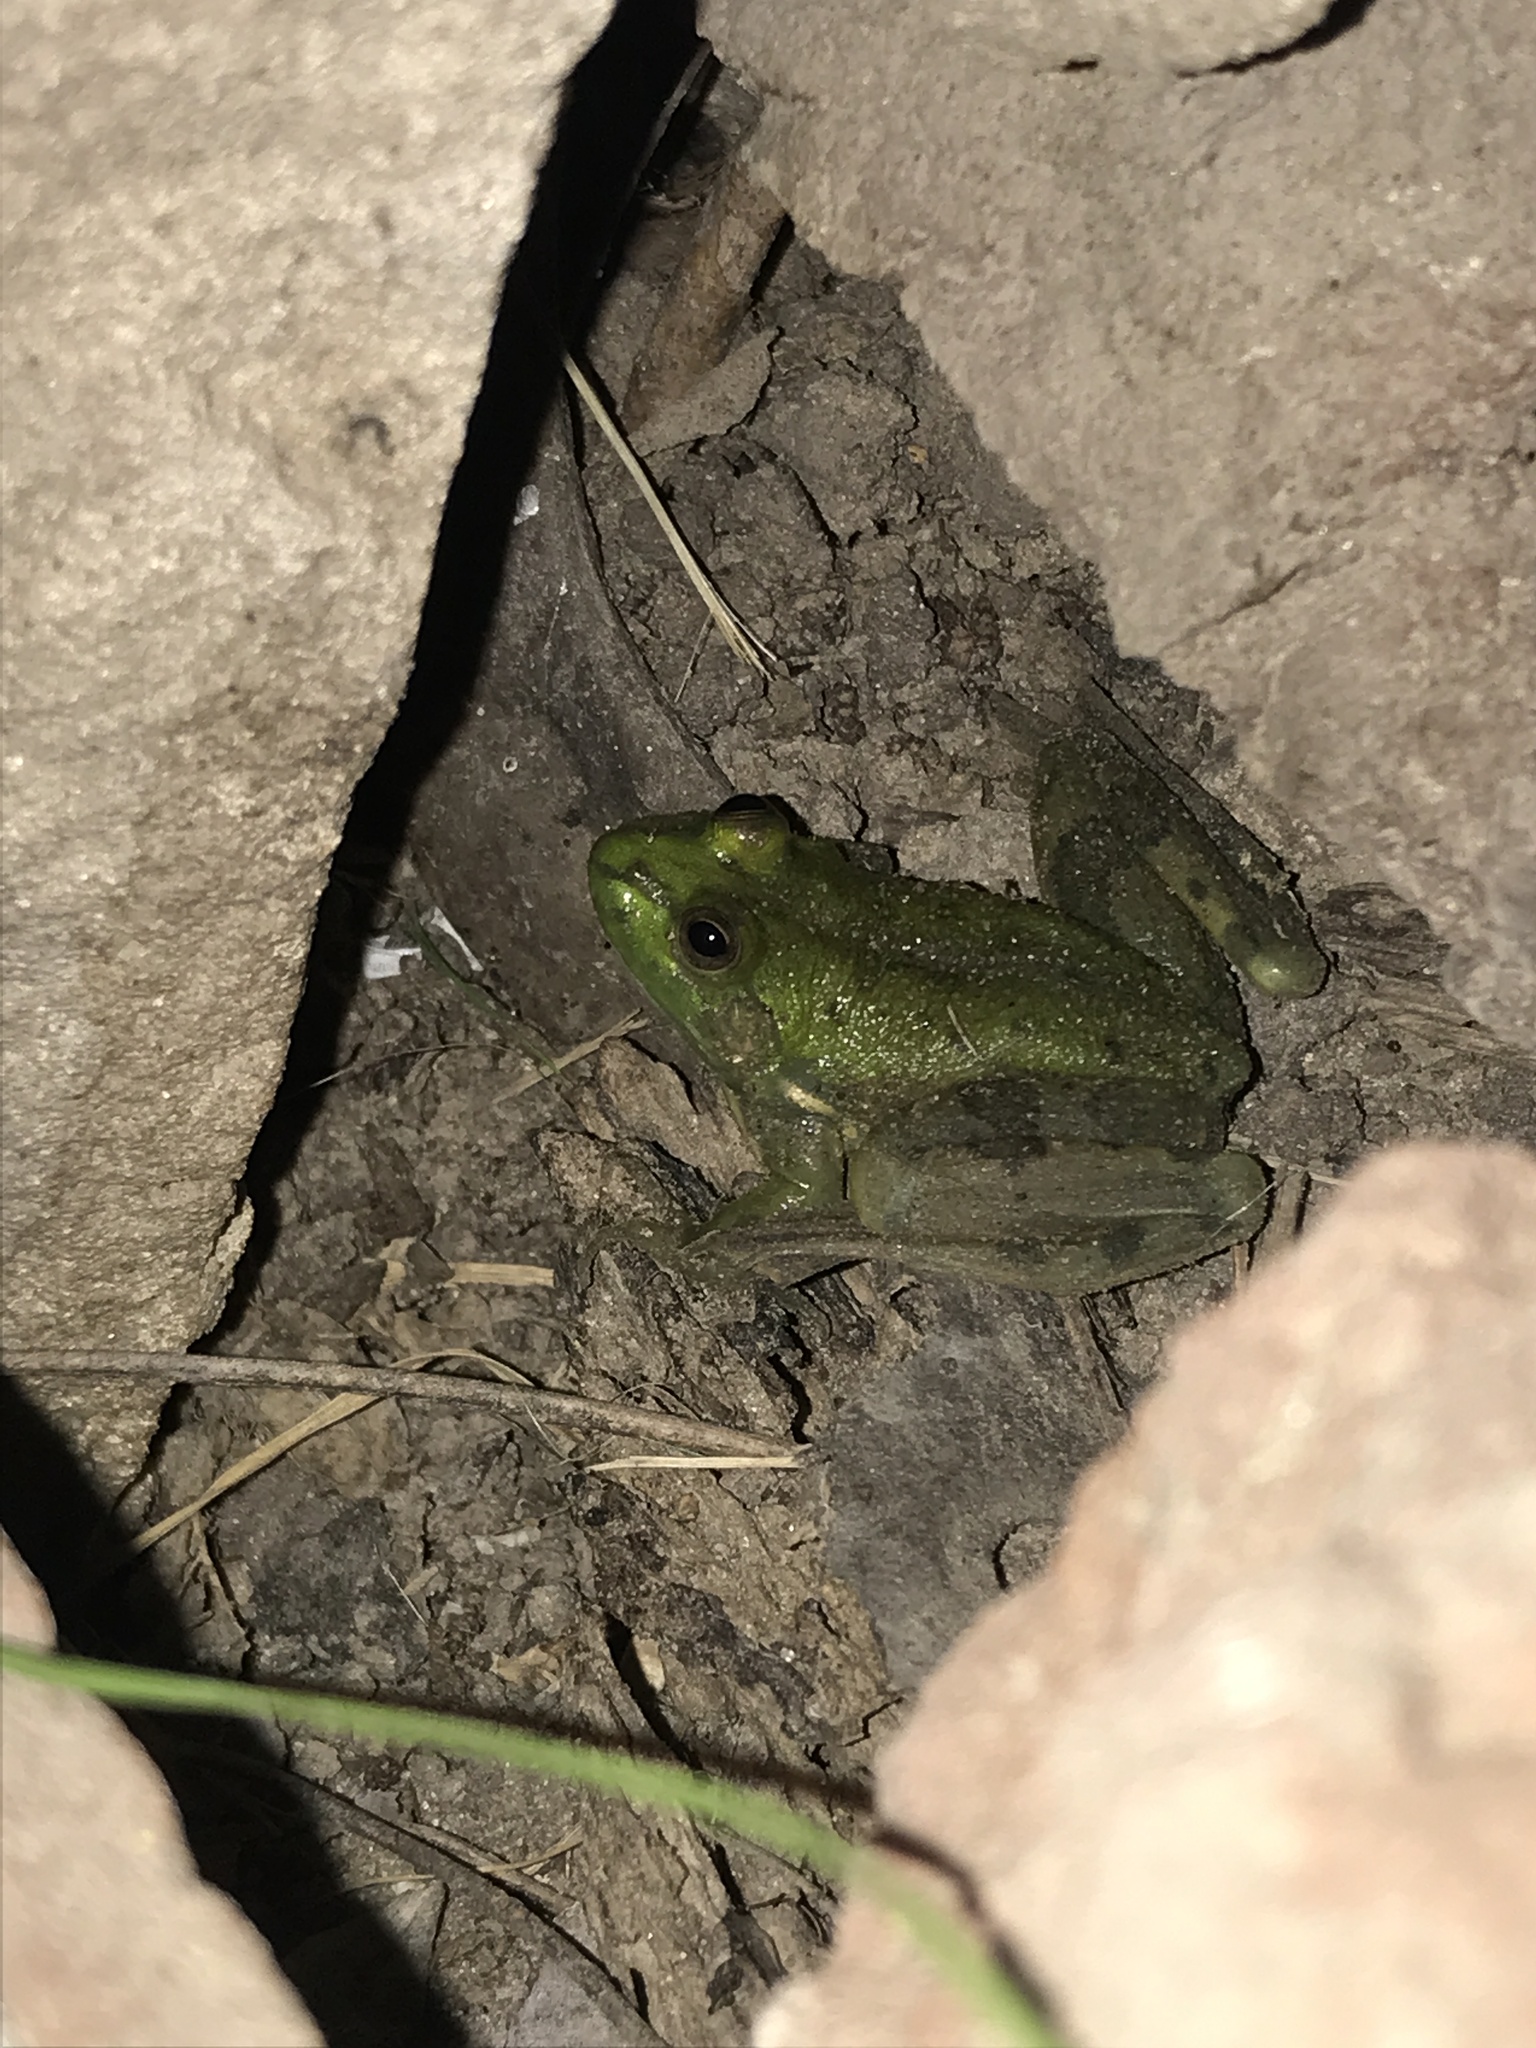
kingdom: Animalia
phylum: Chordata
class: Amphibia
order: Anura
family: Hylidae
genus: Pseudis
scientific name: Pseudis minuta
